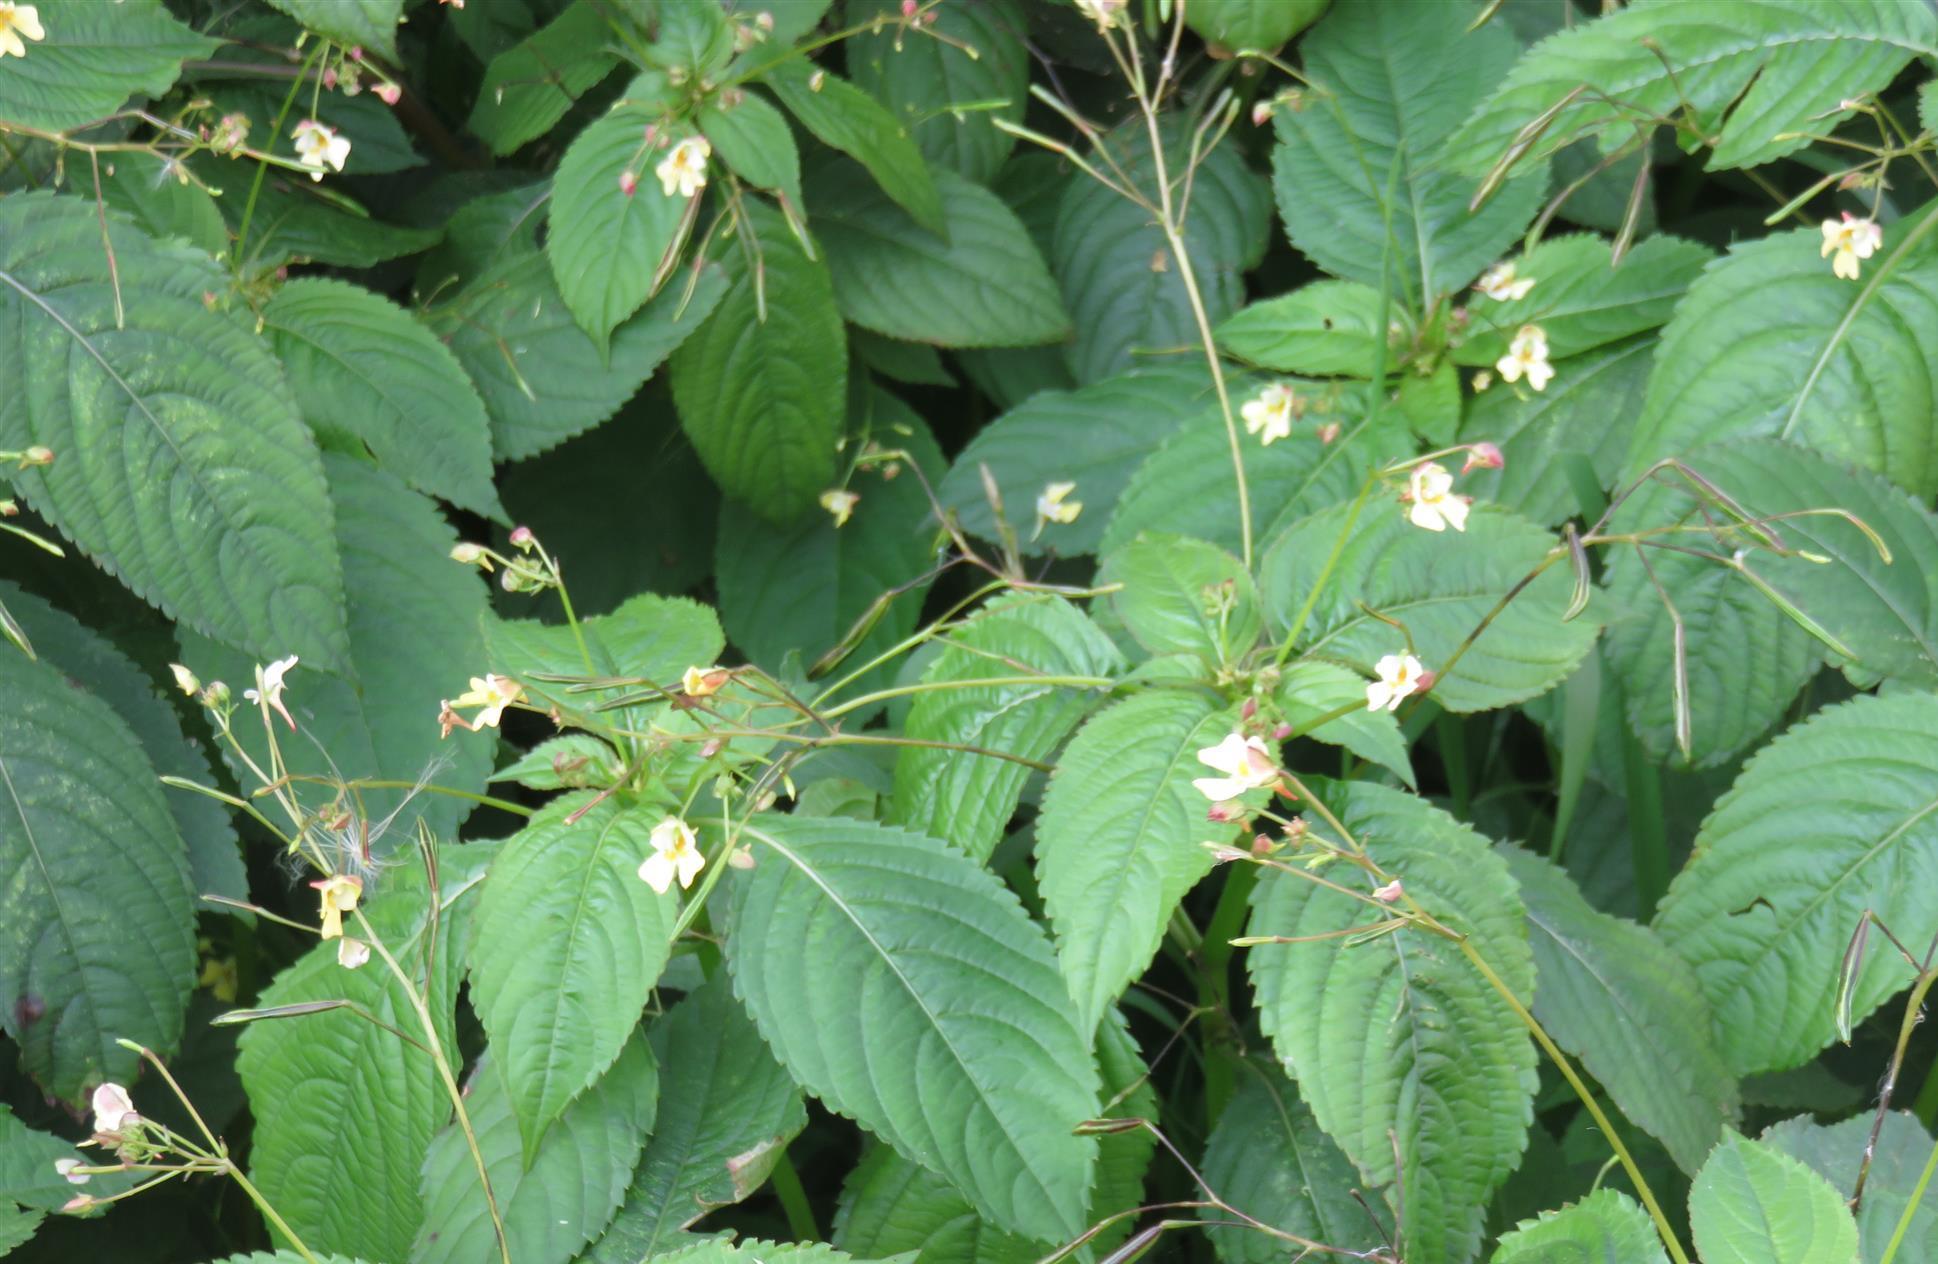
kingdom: Plantae
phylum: Tracheophyta
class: Magnoliopsida
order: Ericales
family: Balsaminaceae
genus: Impatiens
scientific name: Impatiens parviflora
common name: Small balsam
